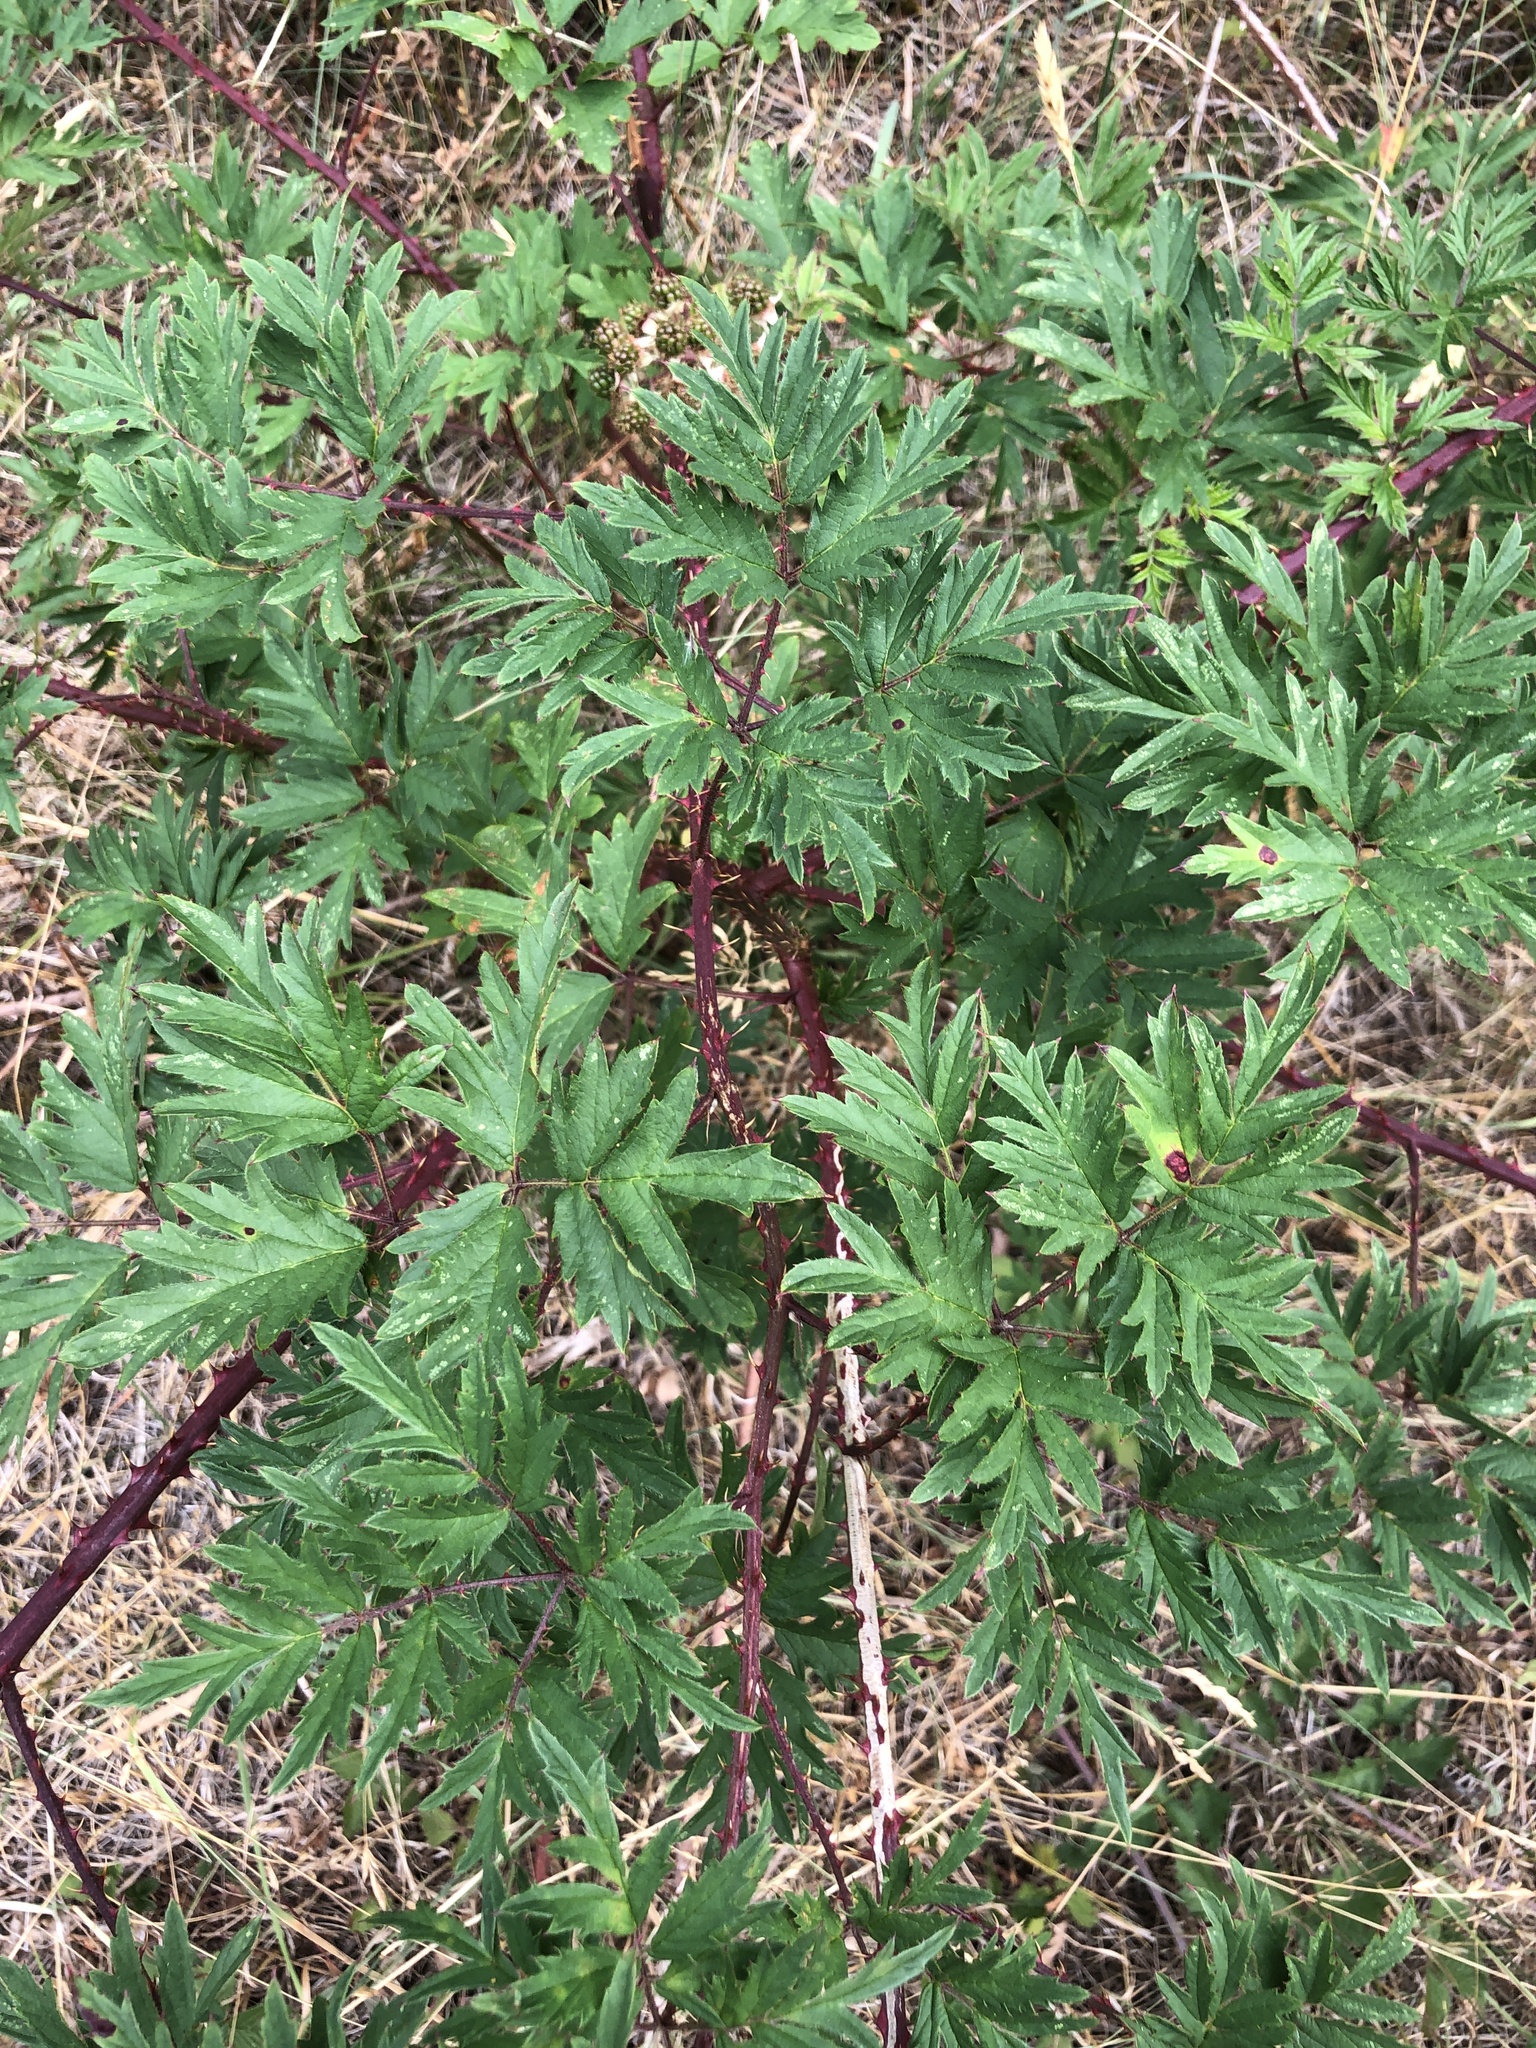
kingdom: Plantae
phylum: Tracheophyta
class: Magnoliopsida
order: Rosales
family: Rosaceae
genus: Rubus
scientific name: Rubus laciniatus
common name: Evergreen blackberry
